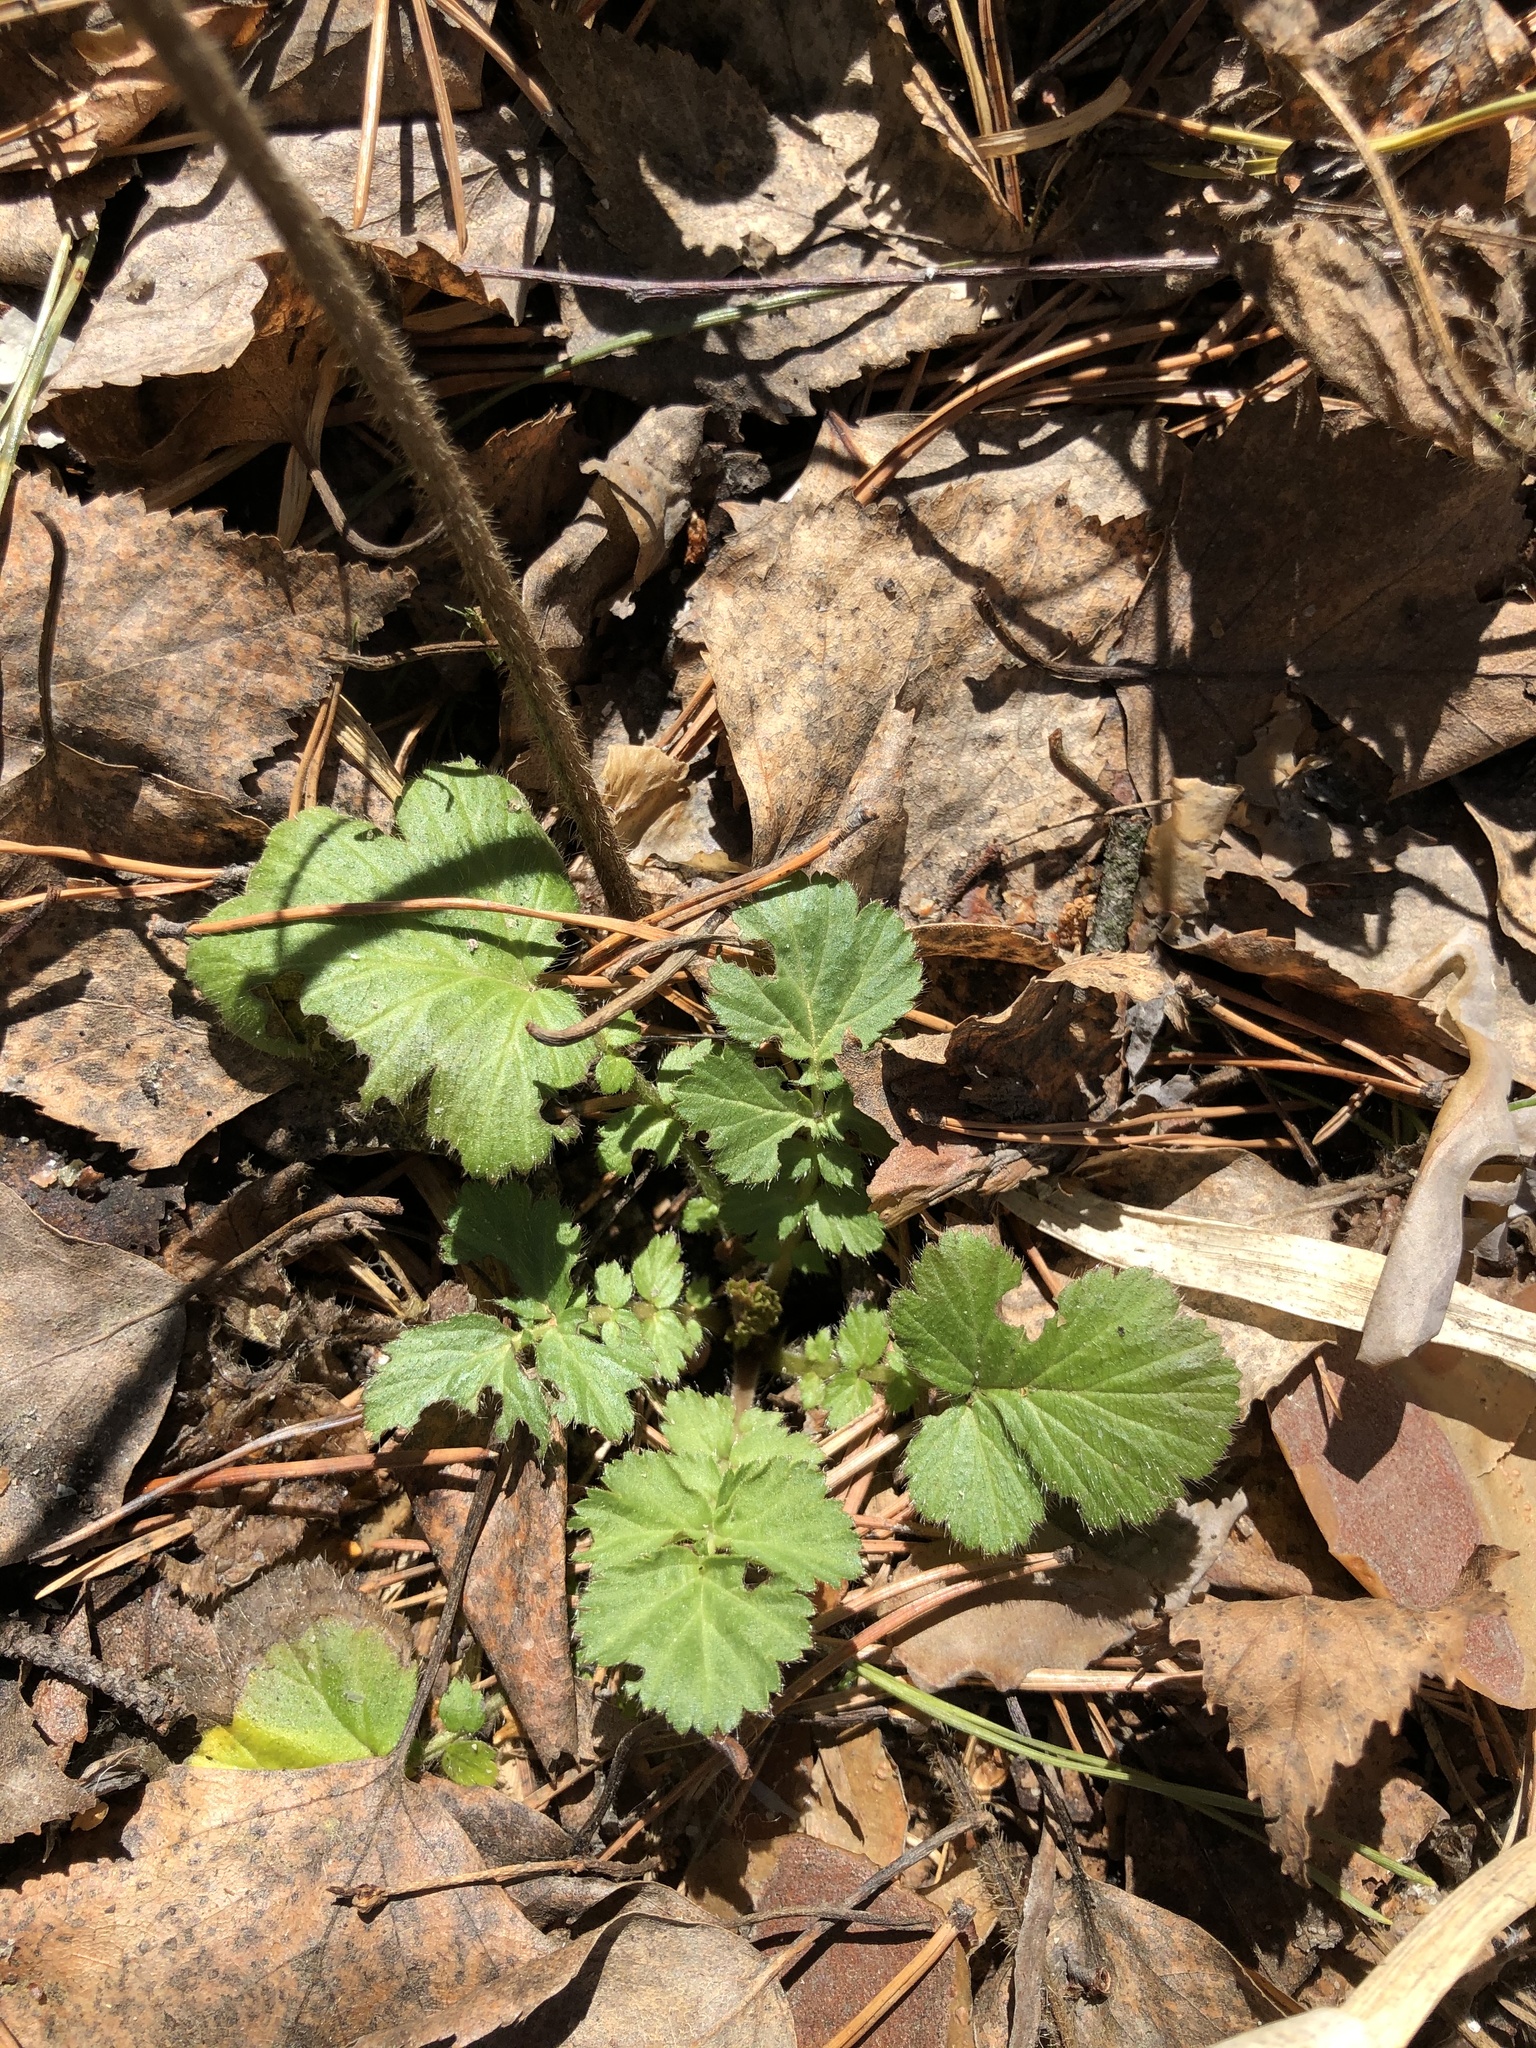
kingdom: Plantae
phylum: Tracheophyta
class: Magnoliopsida
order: Rosales
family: Rosaceae
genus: Geum
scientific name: Geum aleppicum
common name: Yellow avens
